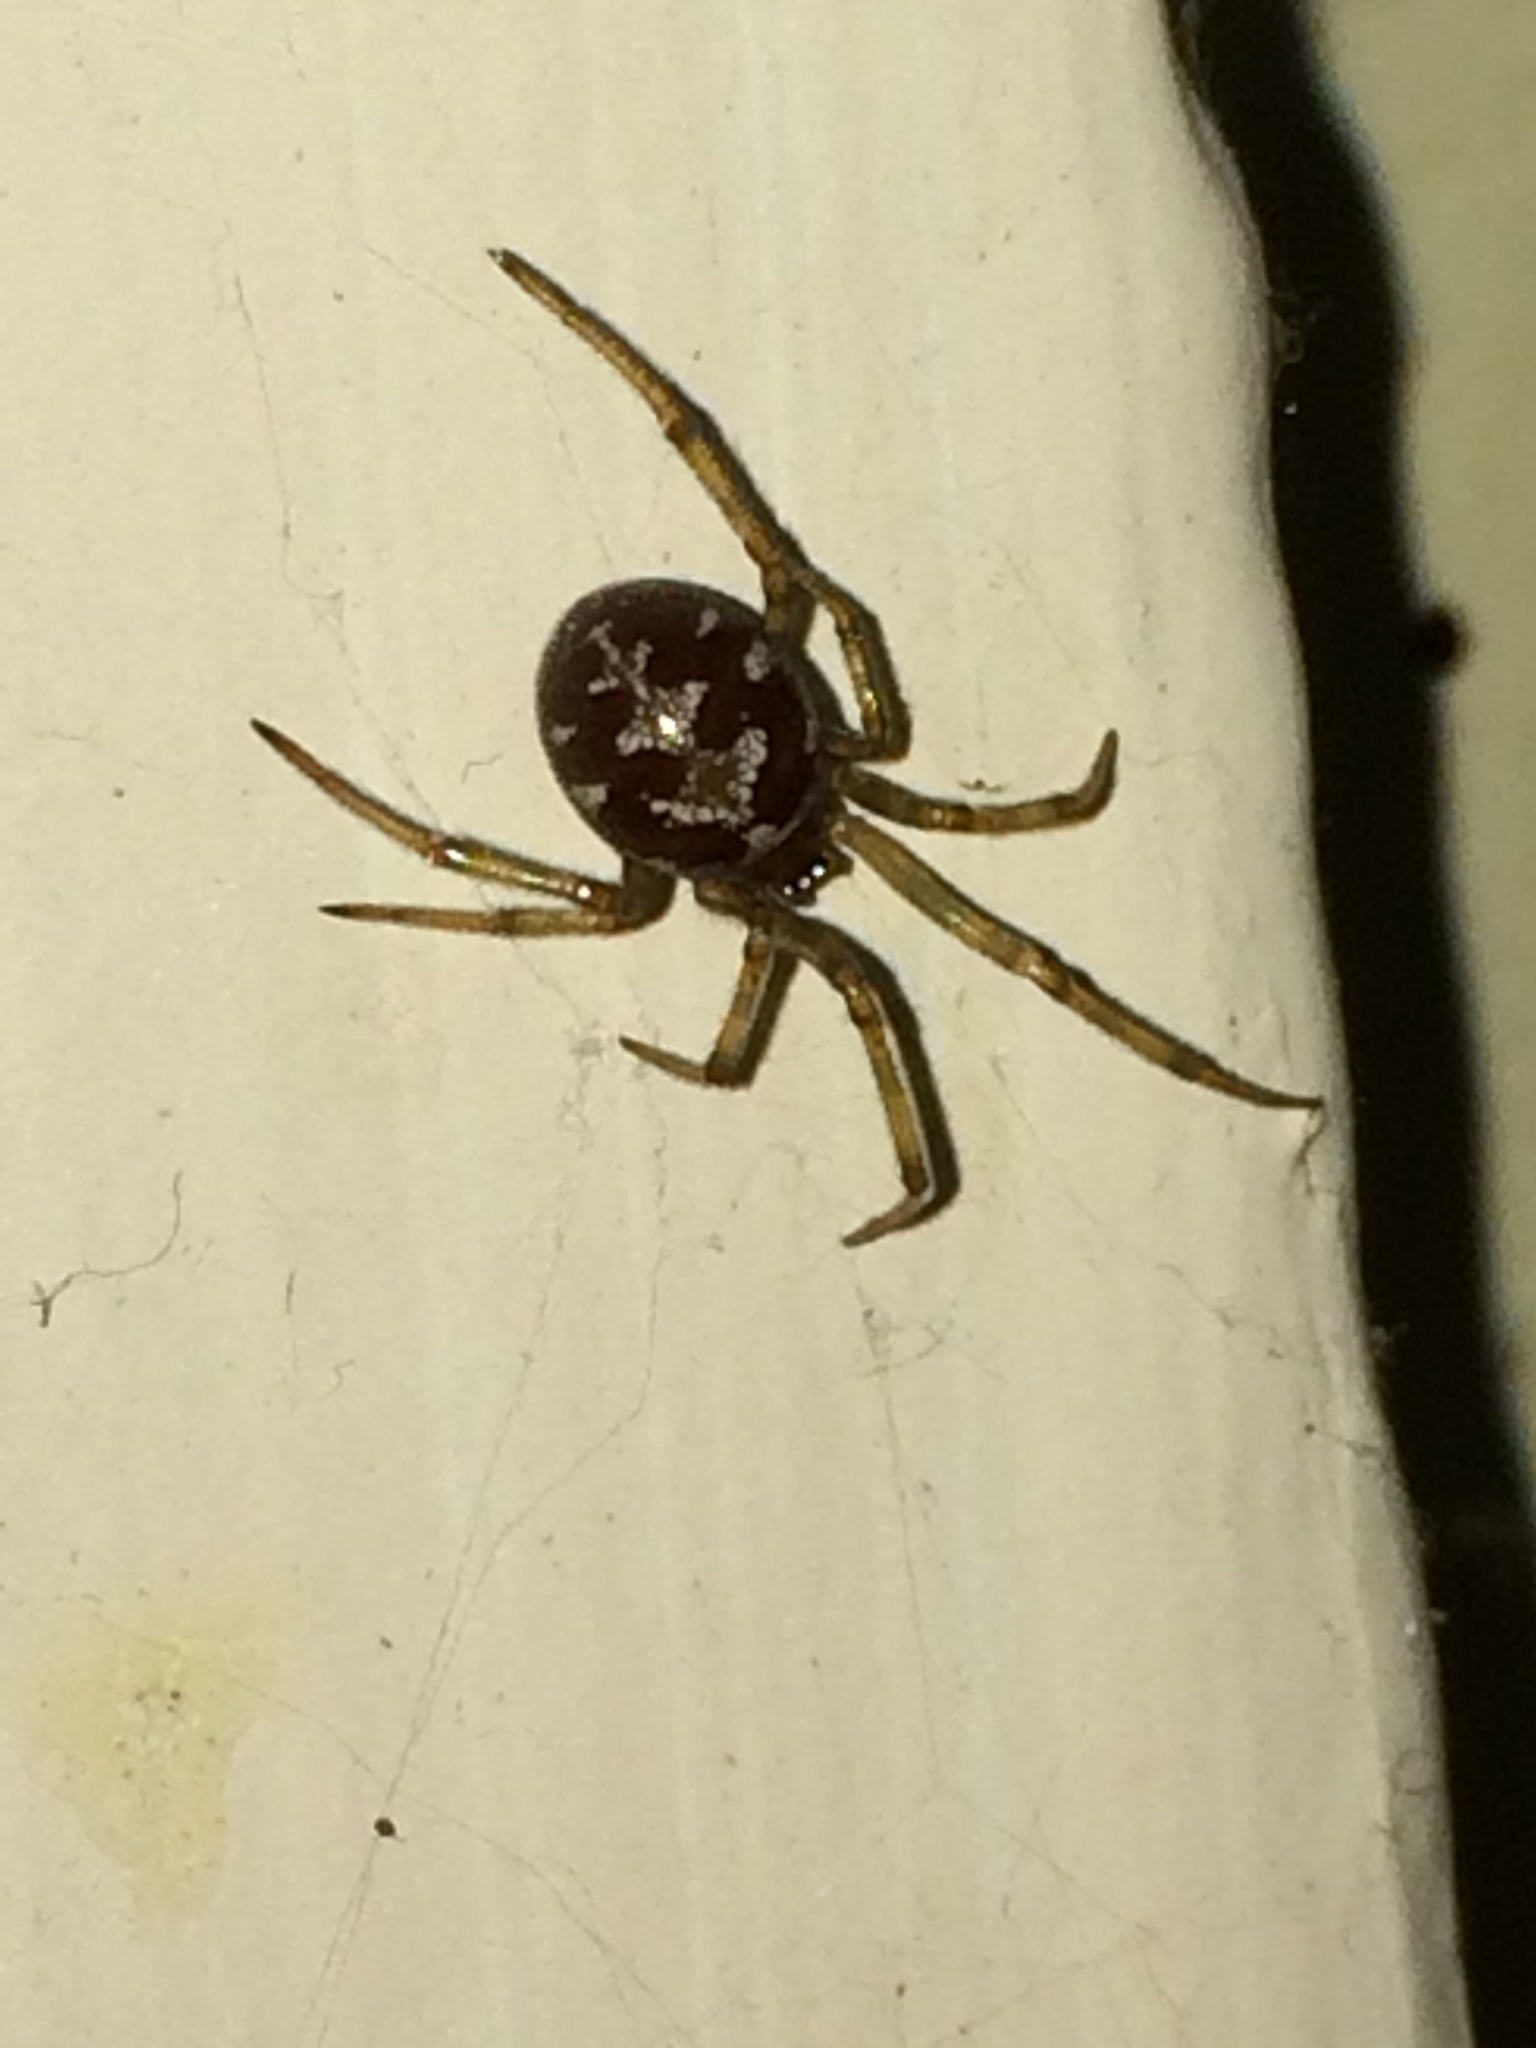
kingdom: Animalia
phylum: Arthropoda
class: Arachnida
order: Araneae
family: Theridiidae
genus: Steatoda
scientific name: Steatoda triangulosa
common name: Triangulate bud spider
